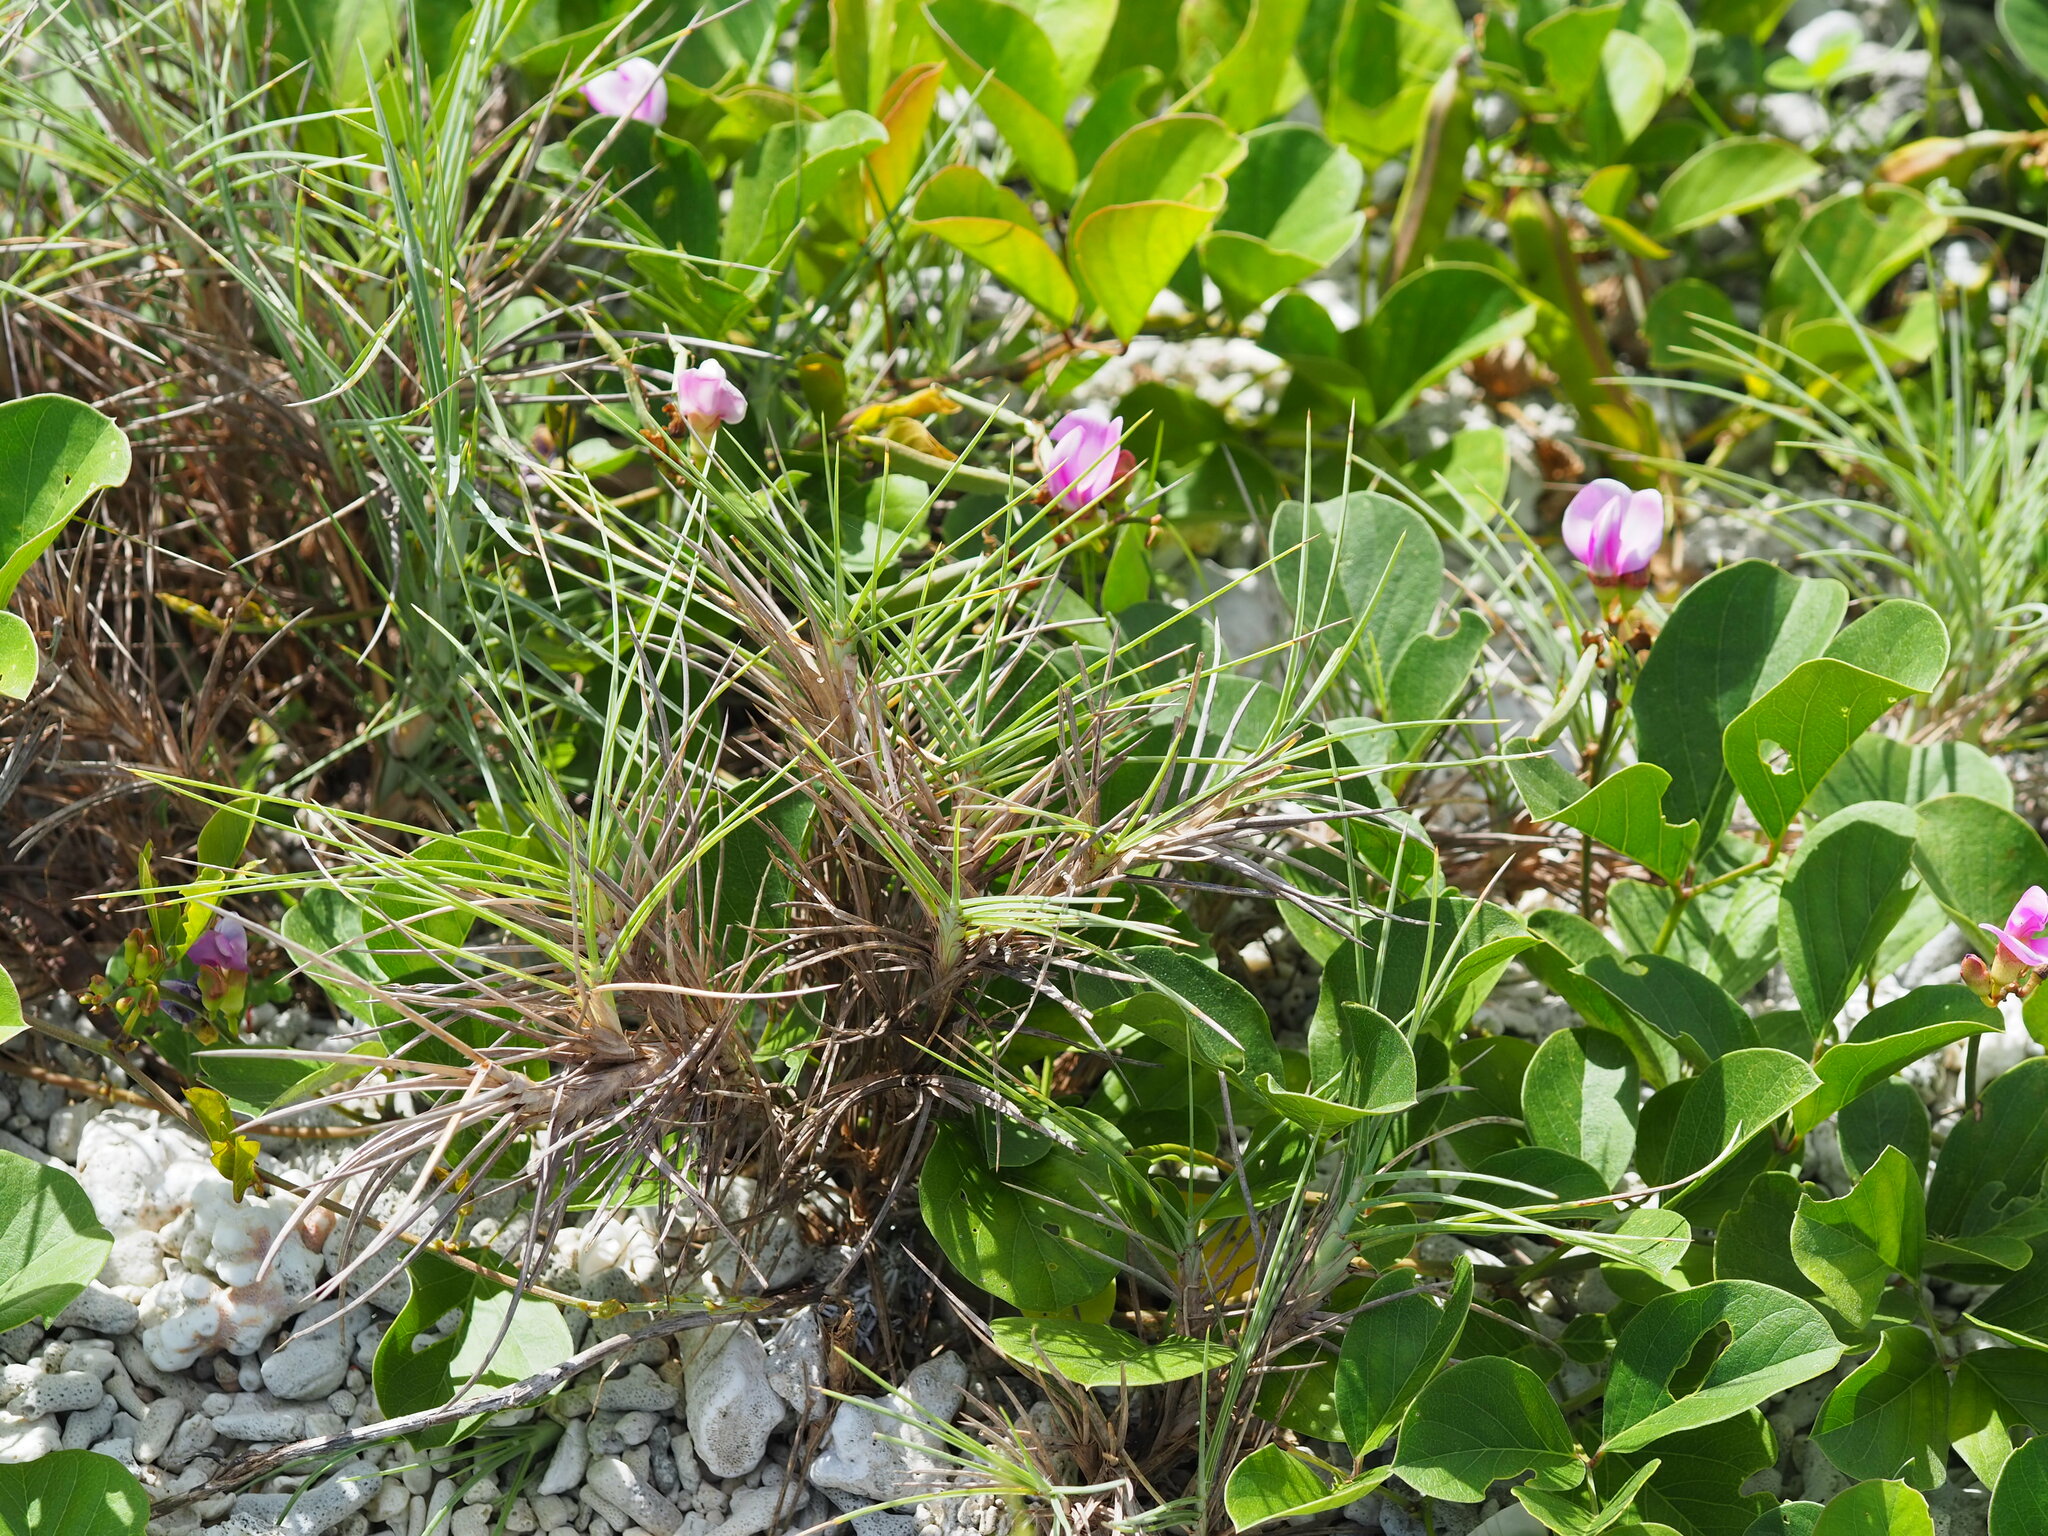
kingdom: Plantae
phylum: Tracheophyta
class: Liliopsida
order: Poales
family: Poaceae
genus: Spinifex
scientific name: Spinifex littoreus
